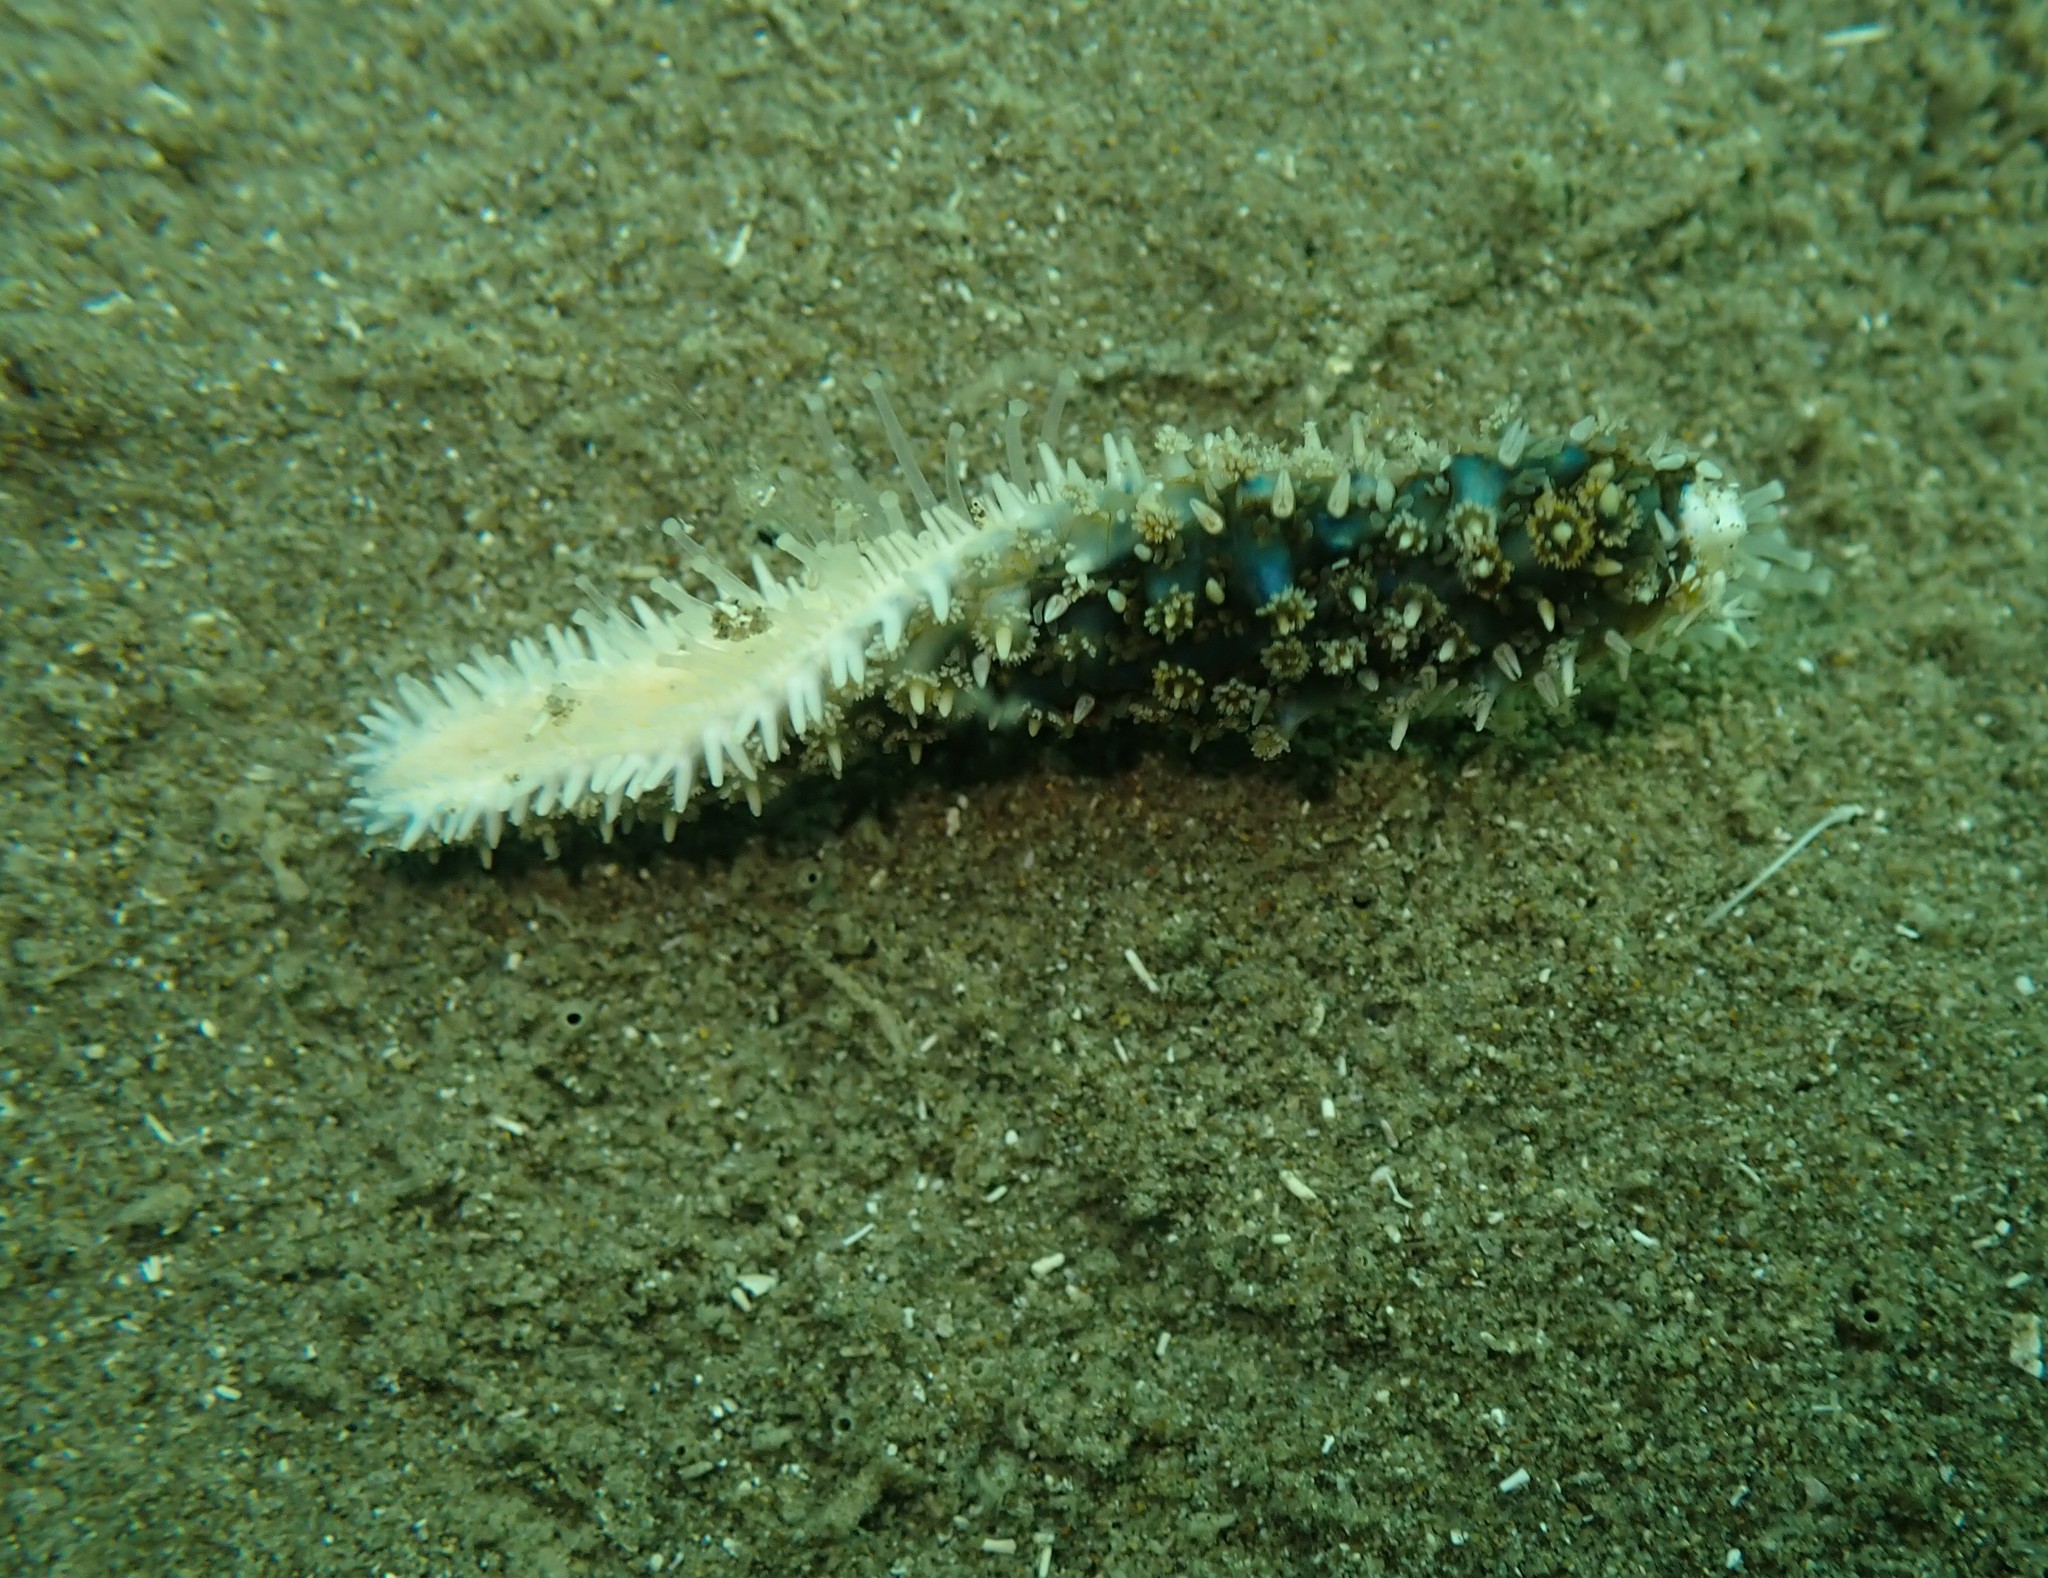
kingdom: Animalia
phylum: Echinodermata
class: Asteroidea
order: Forcipulatida
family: Asteriidae
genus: Coscinasterias
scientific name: Coscinasterias muricata
